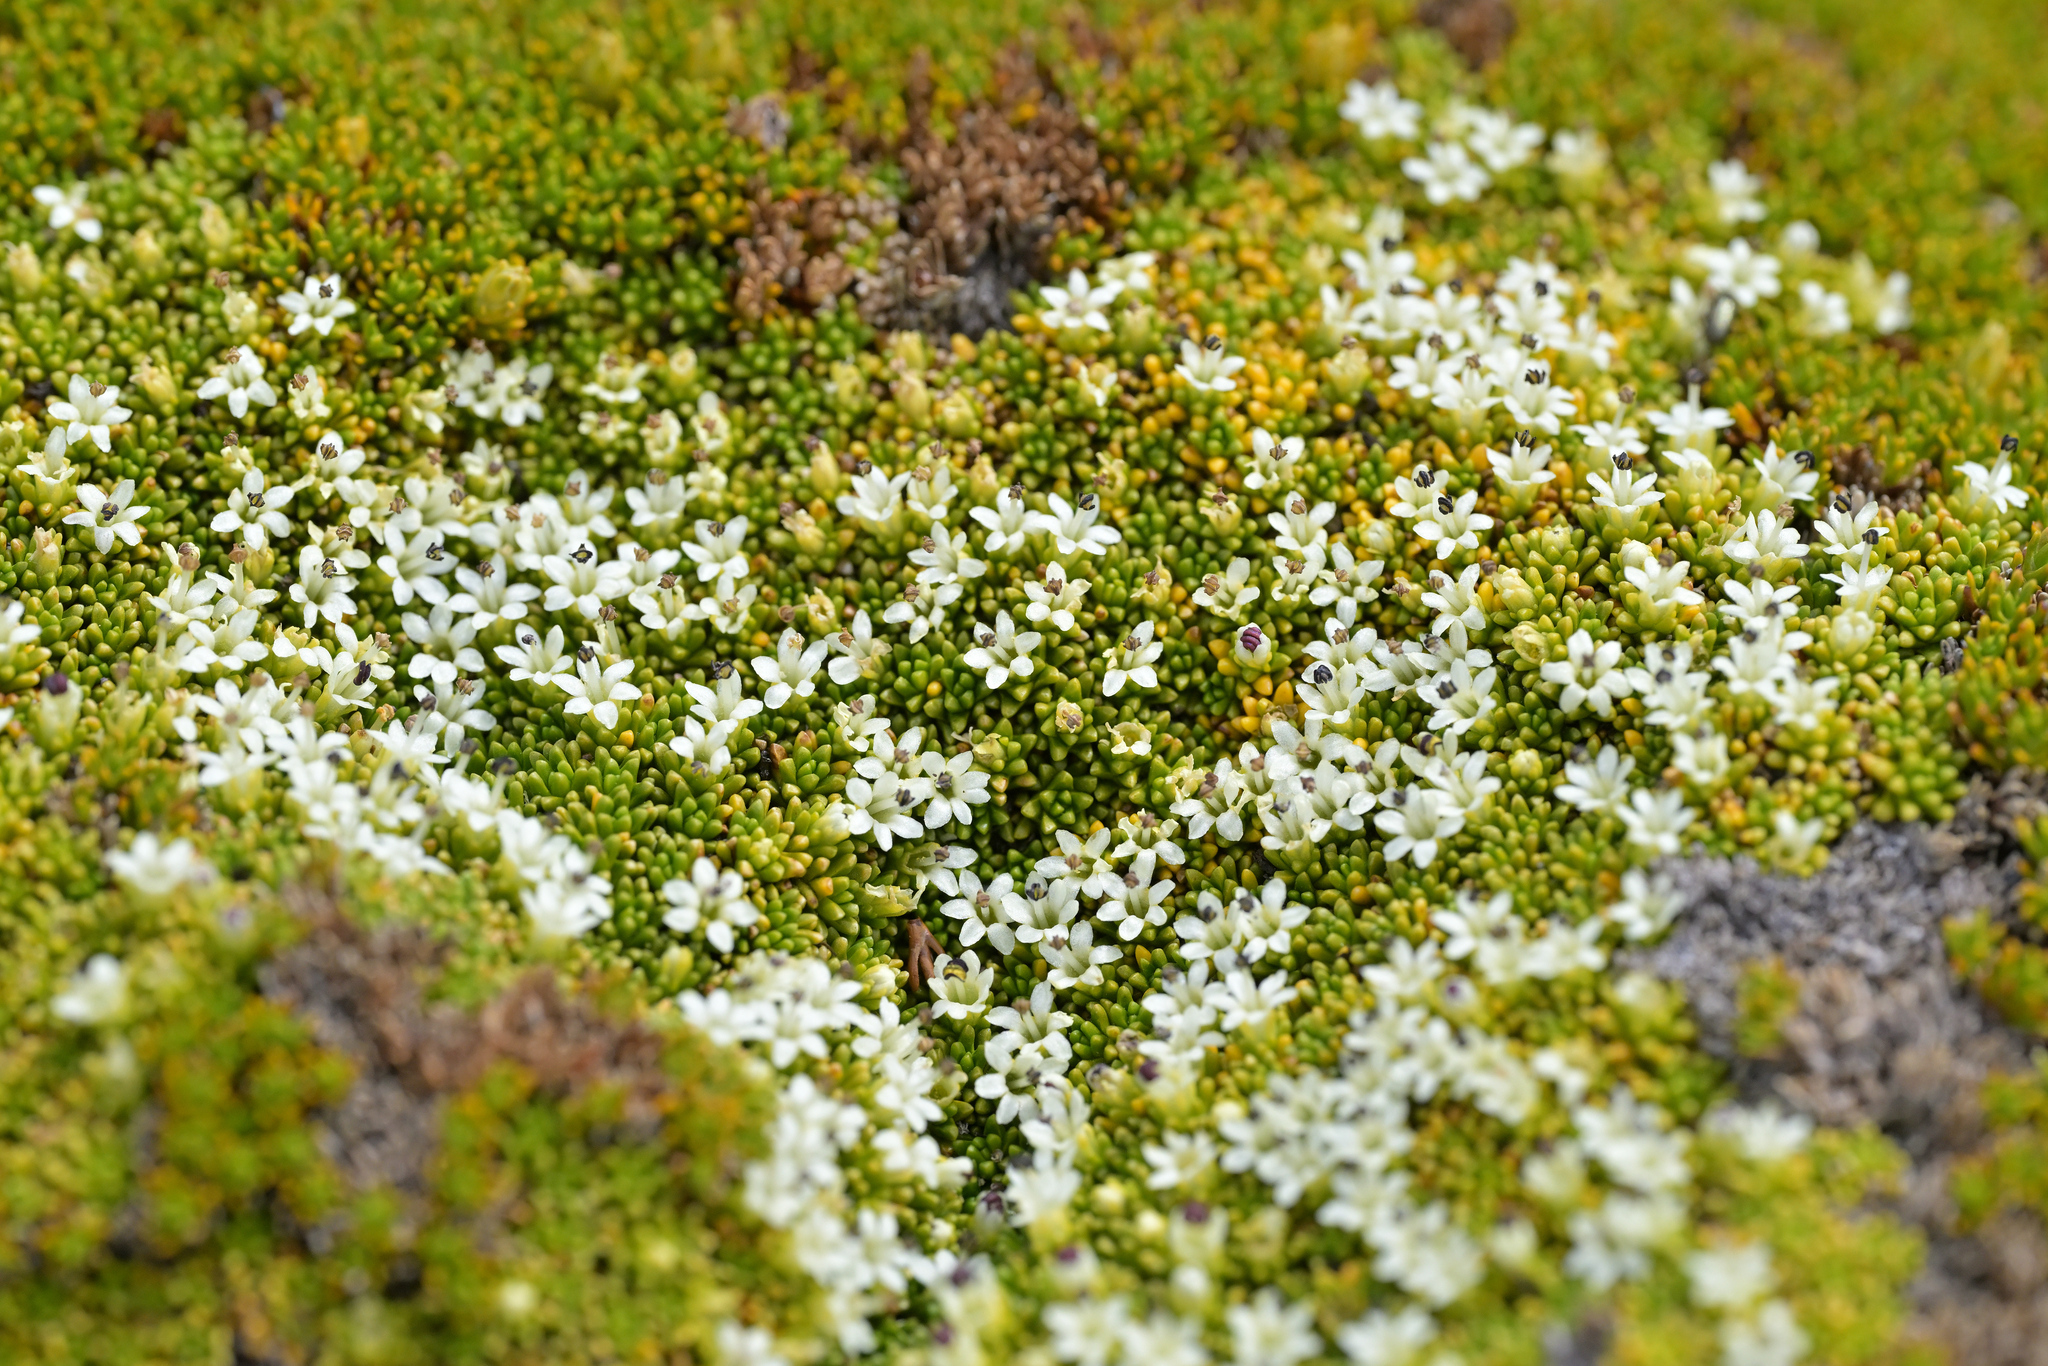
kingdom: Plantae
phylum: Tracheophyta
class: Magnoliopsida
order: Asterales
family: Stylidiaceae
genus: Phyllachne
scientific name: Phyllachne colensoi
